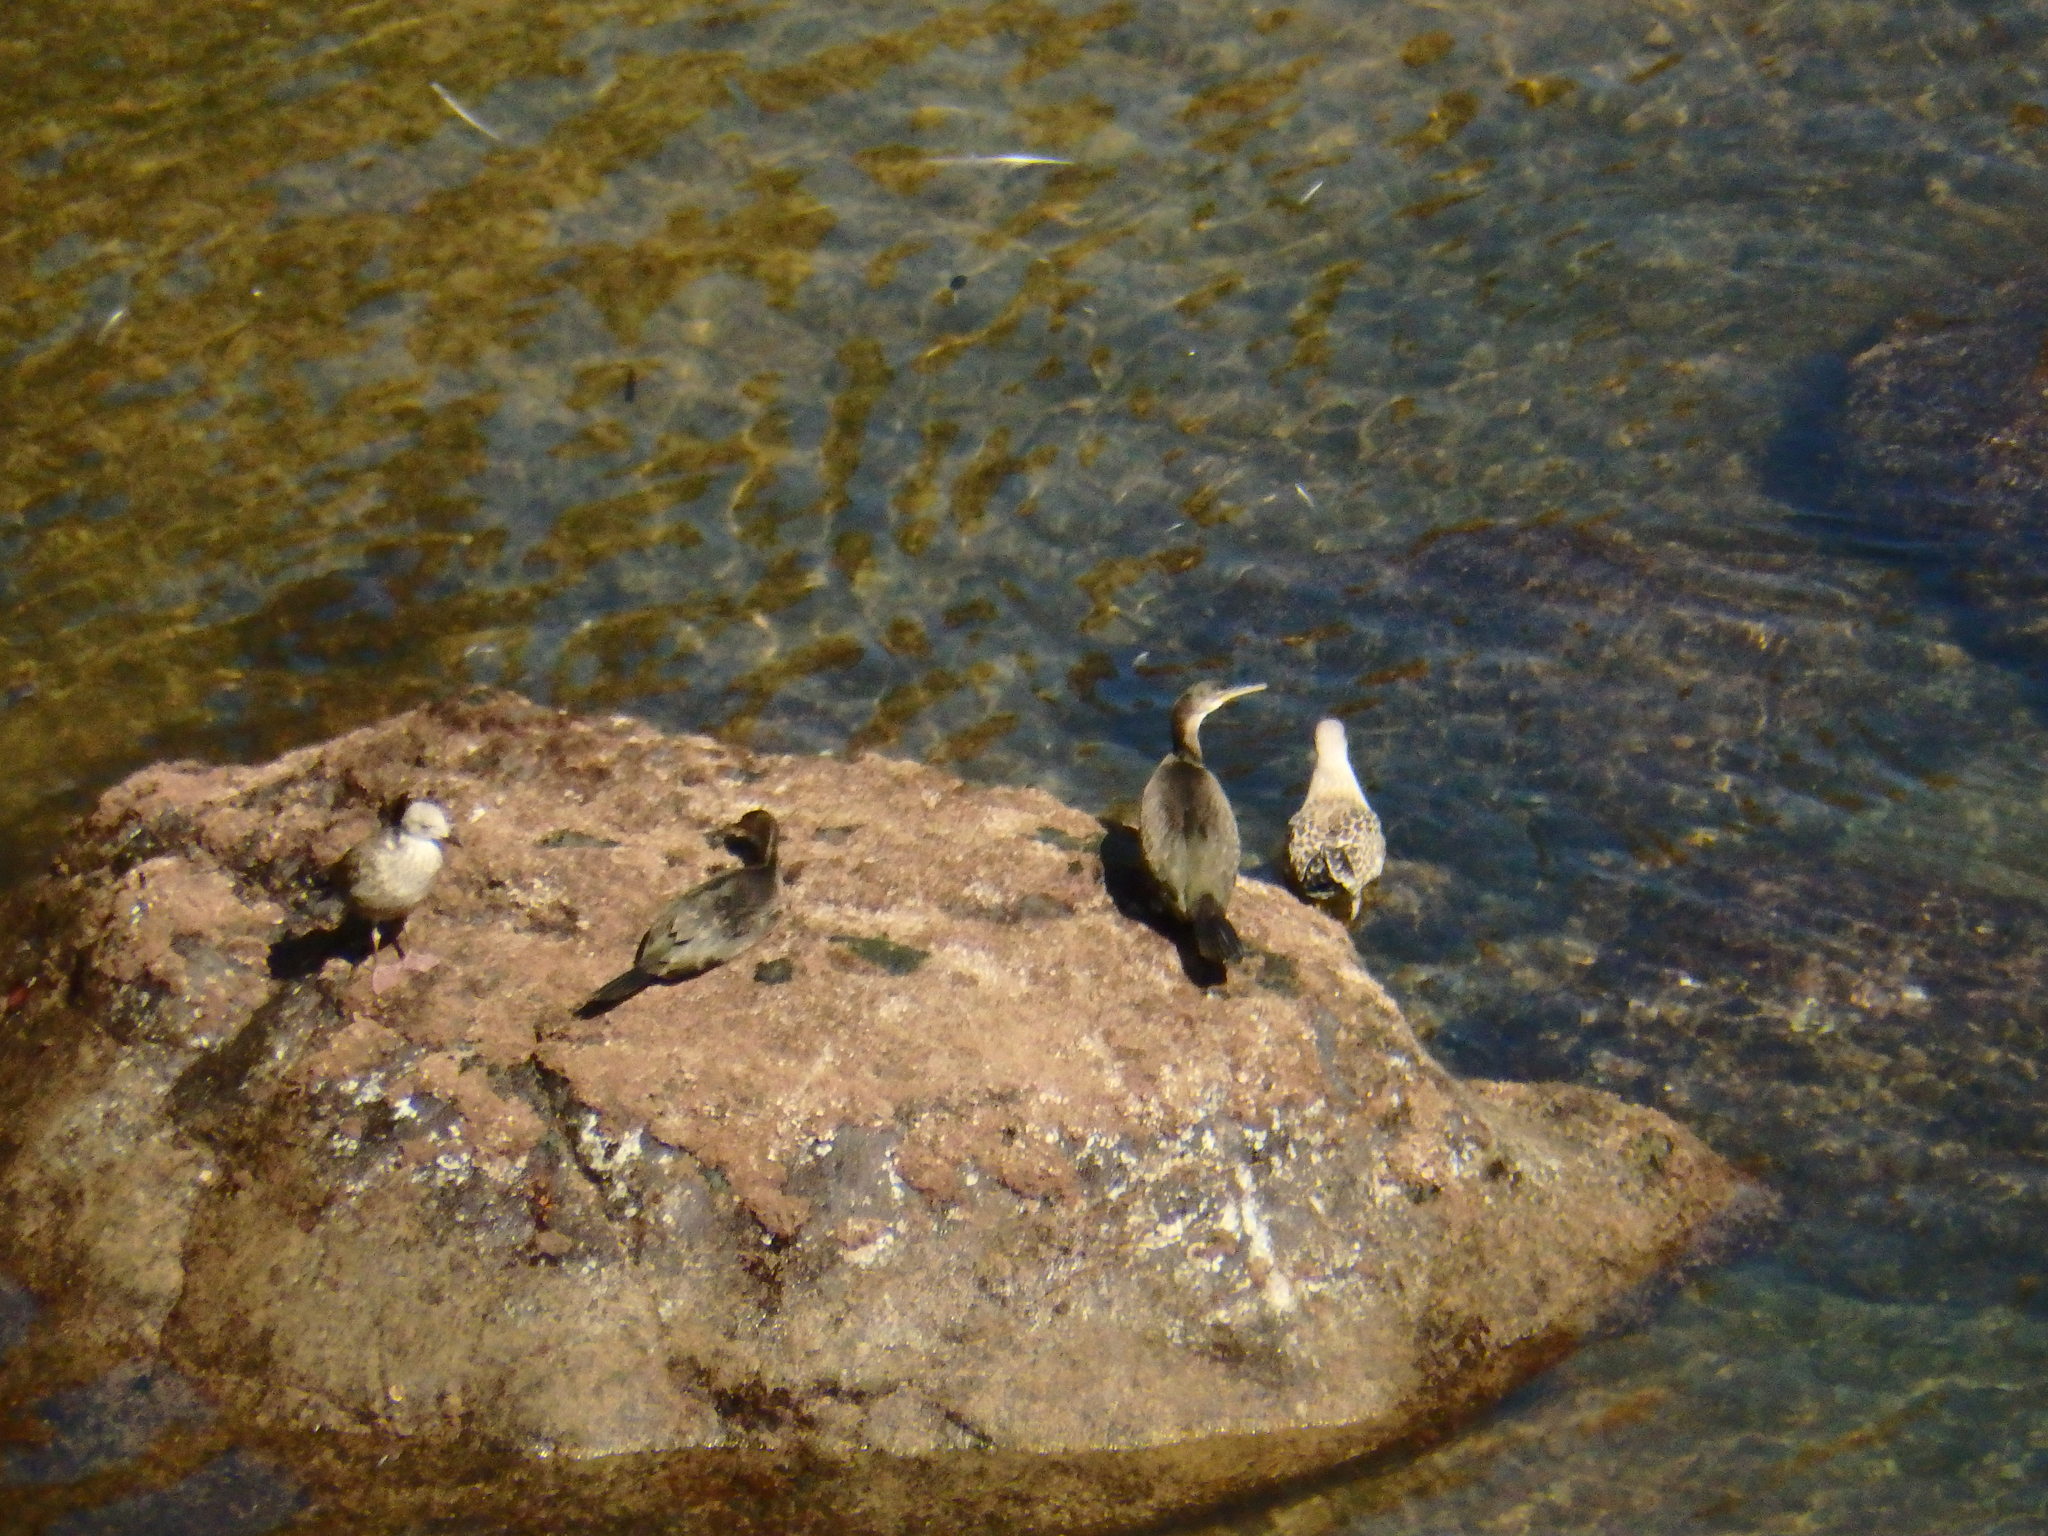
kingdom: Animalia
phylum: Chordata
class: Aves
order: Suliformes
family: Phalacrocoracidae
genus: Phalacrocorax
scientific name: Phalacrocorax aristotelis
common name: European shag
